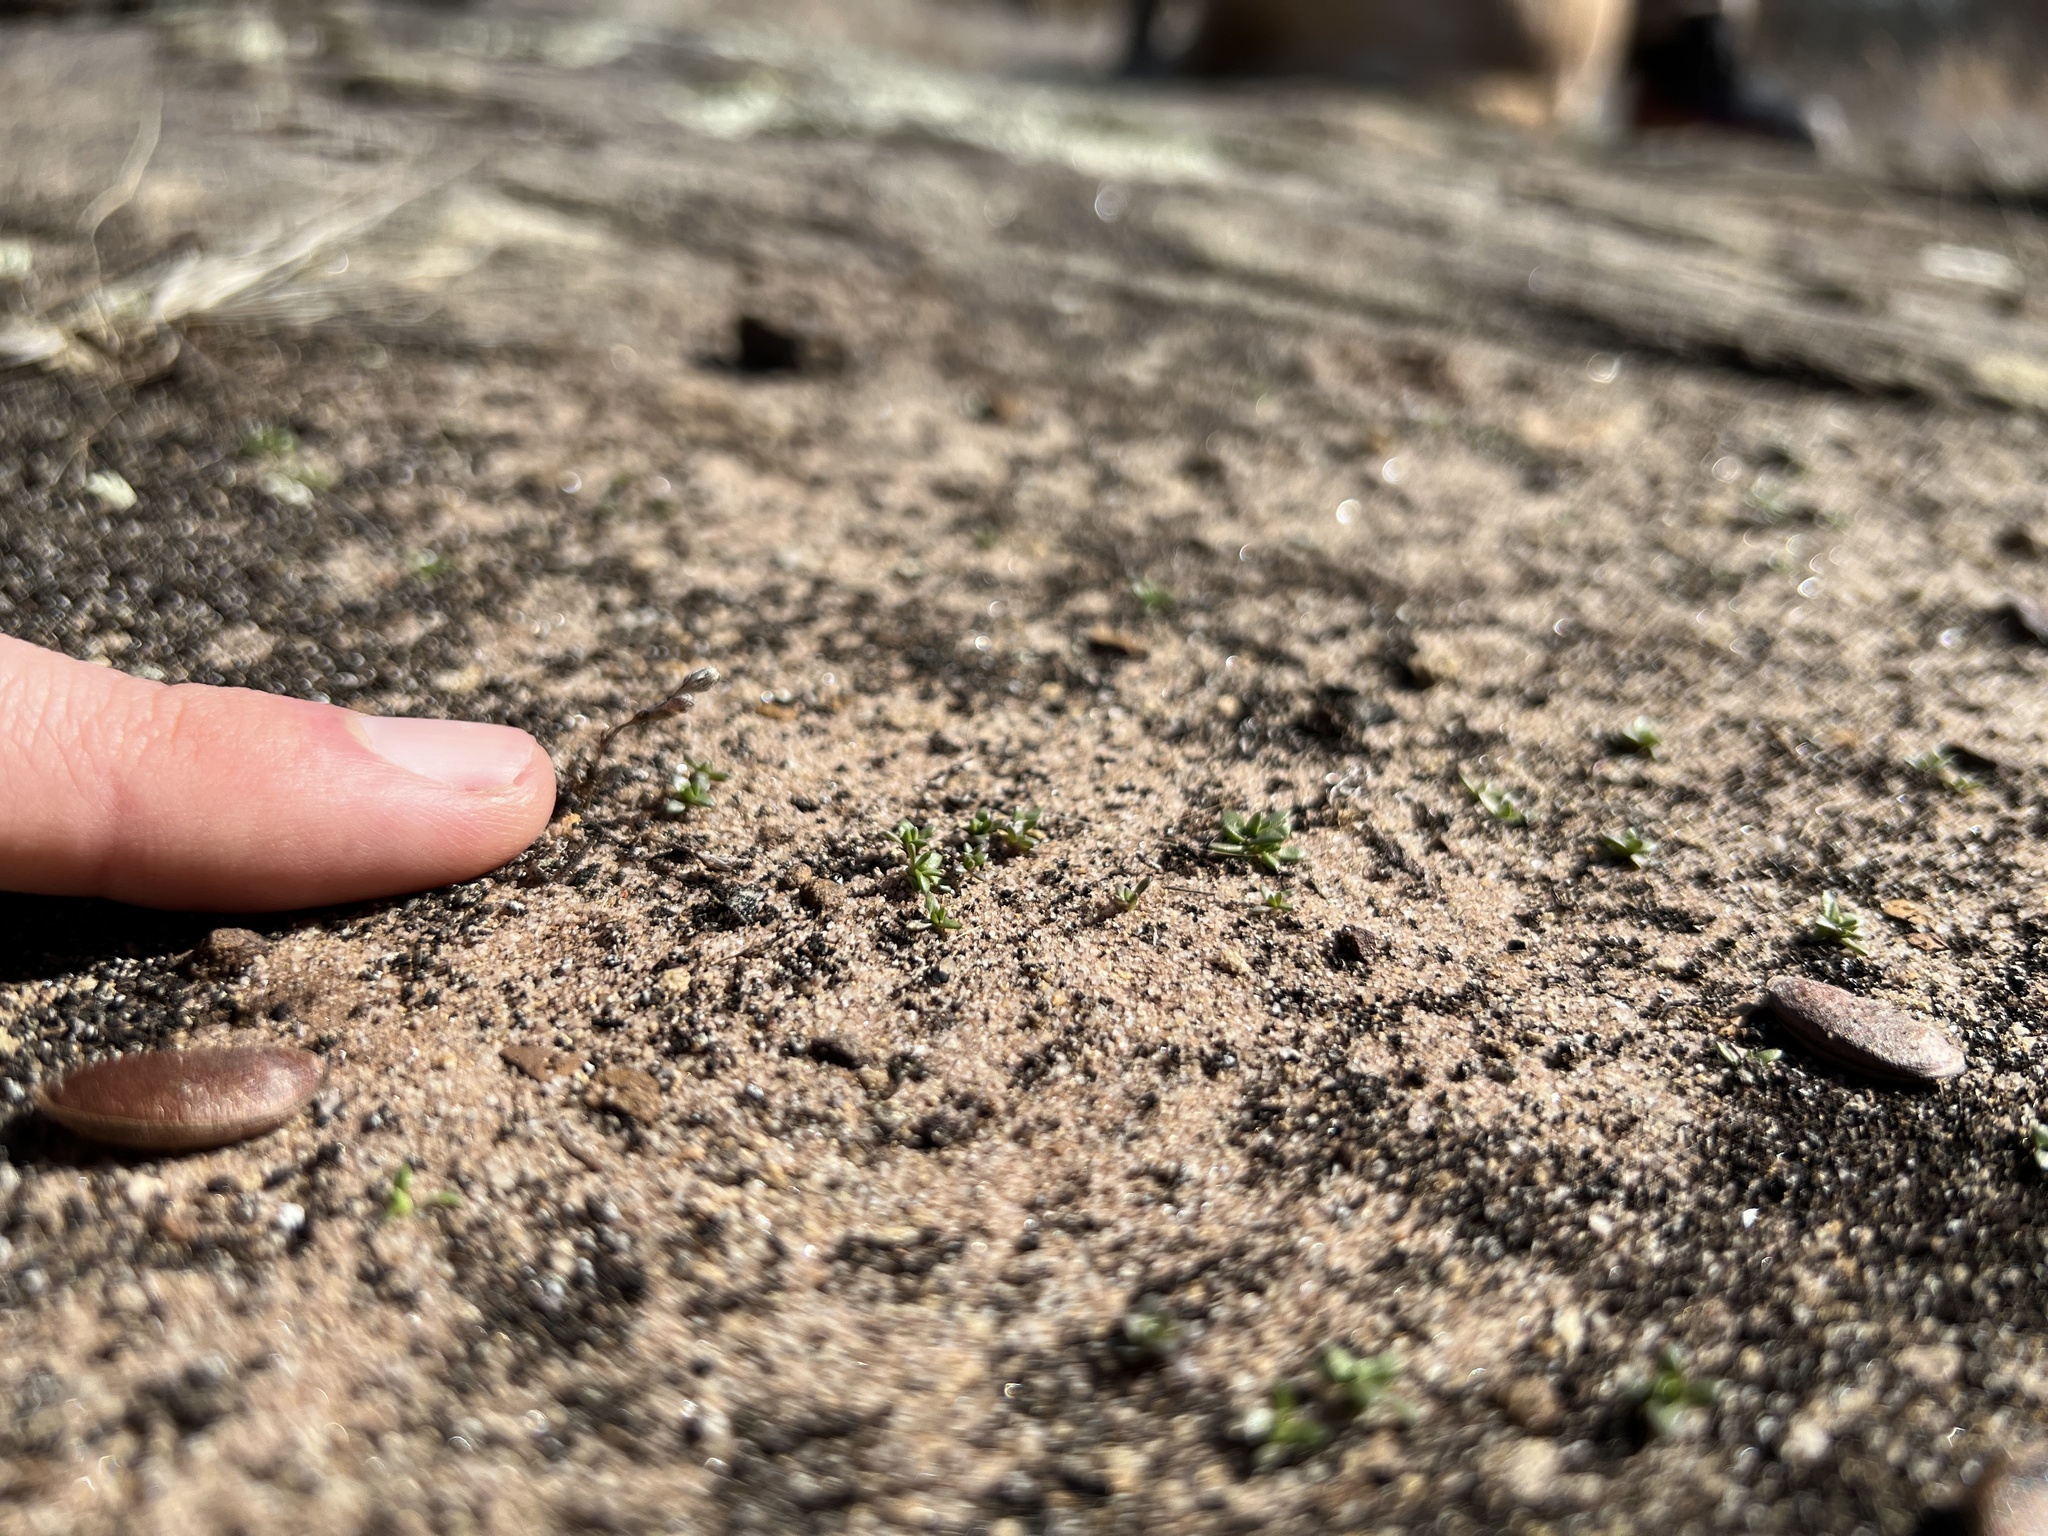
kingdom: Plantae
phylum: Tracheophyta
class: Magnoliopsida
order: Caryophyllales
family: Caryophyllaceae
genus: Geocarpon
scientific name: Geocarpon minimum
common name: Tiny-tim
